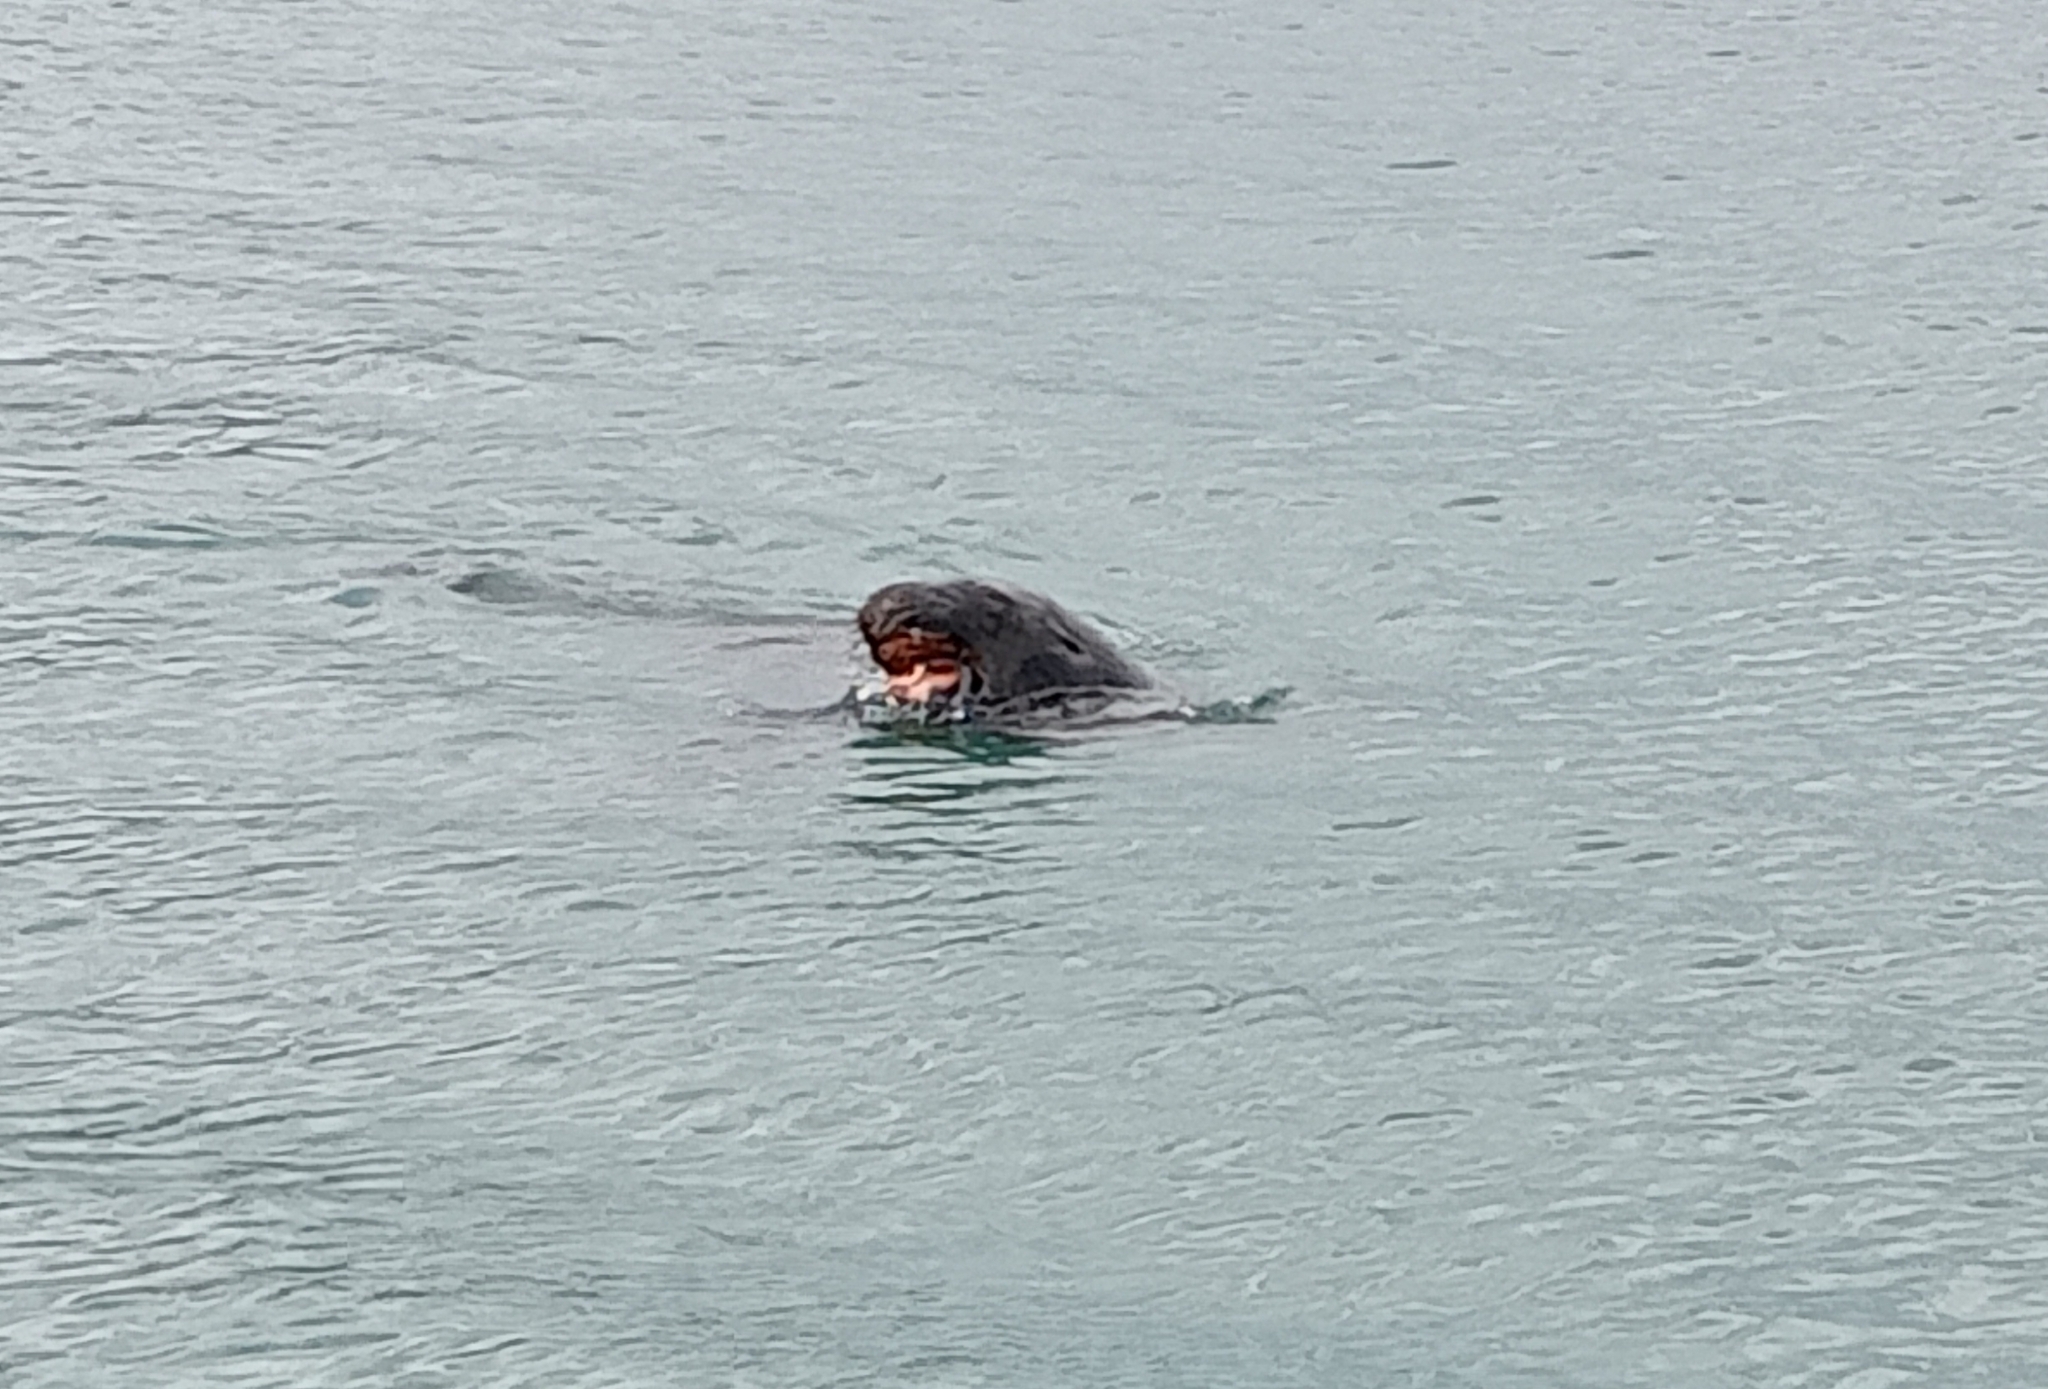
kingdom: Animalia
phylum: Chordata
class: Mammalia
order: Carnivora
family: Otariidae
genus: Phocarctos
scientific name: Phocarctos hookeri
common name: New zealand sea lion
